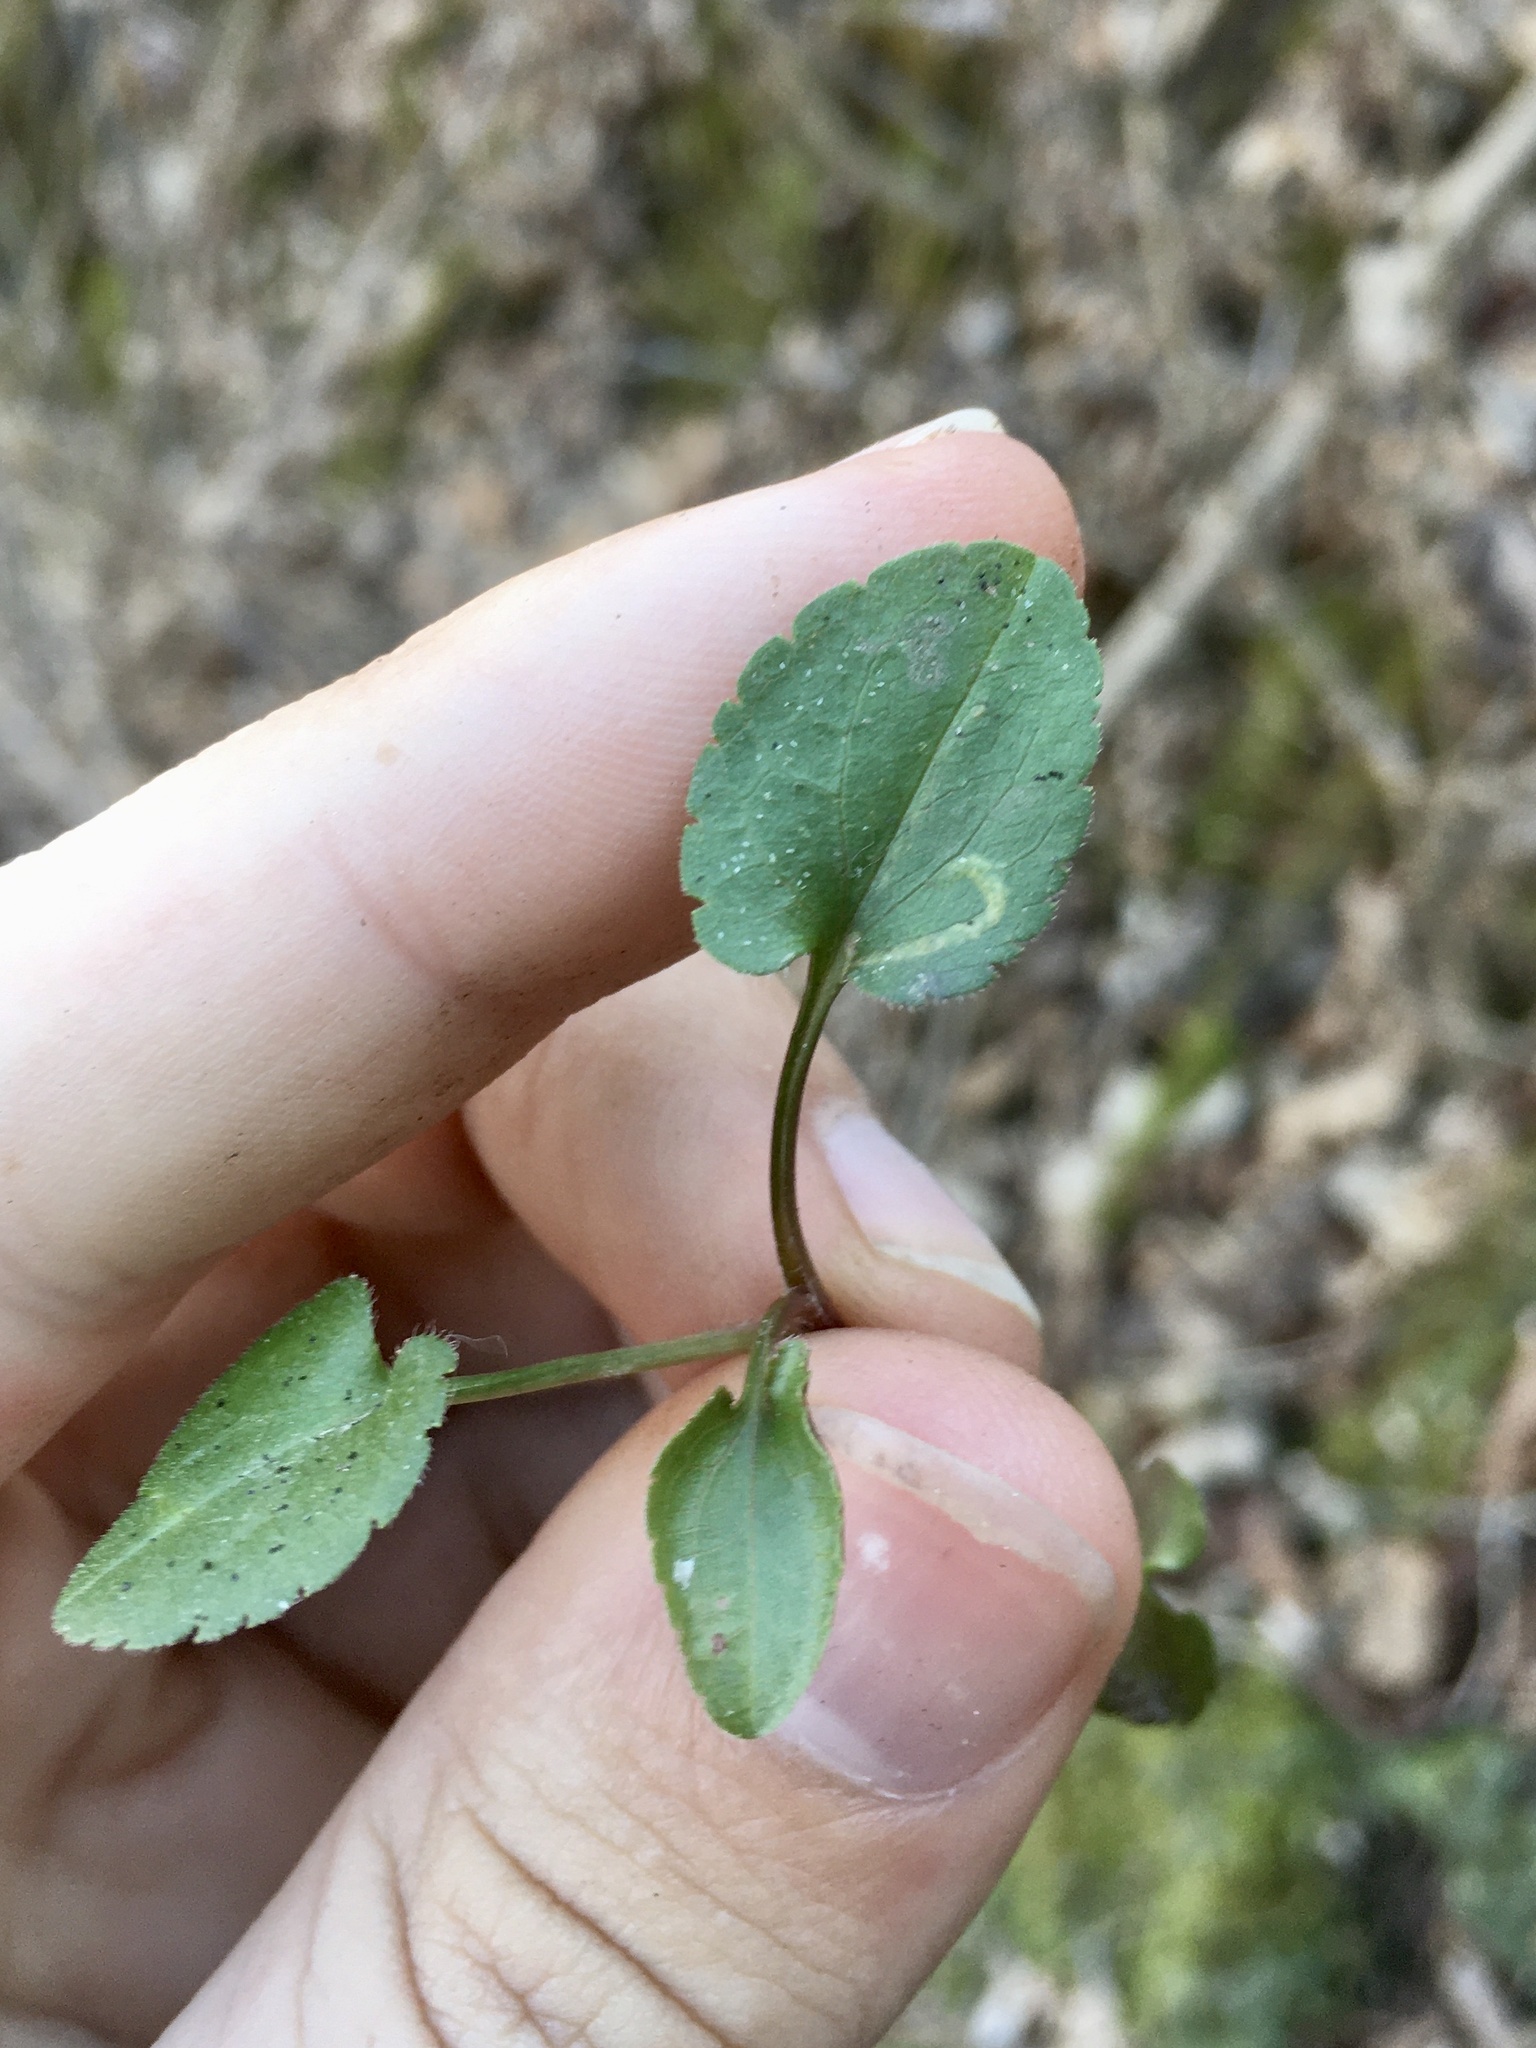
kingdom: Animalia
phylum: Arthropoda
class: Insecta
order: Lepidoptera
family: Bucculatricidae
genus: Bucculatrix
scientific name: Bucculatrix staintonella
